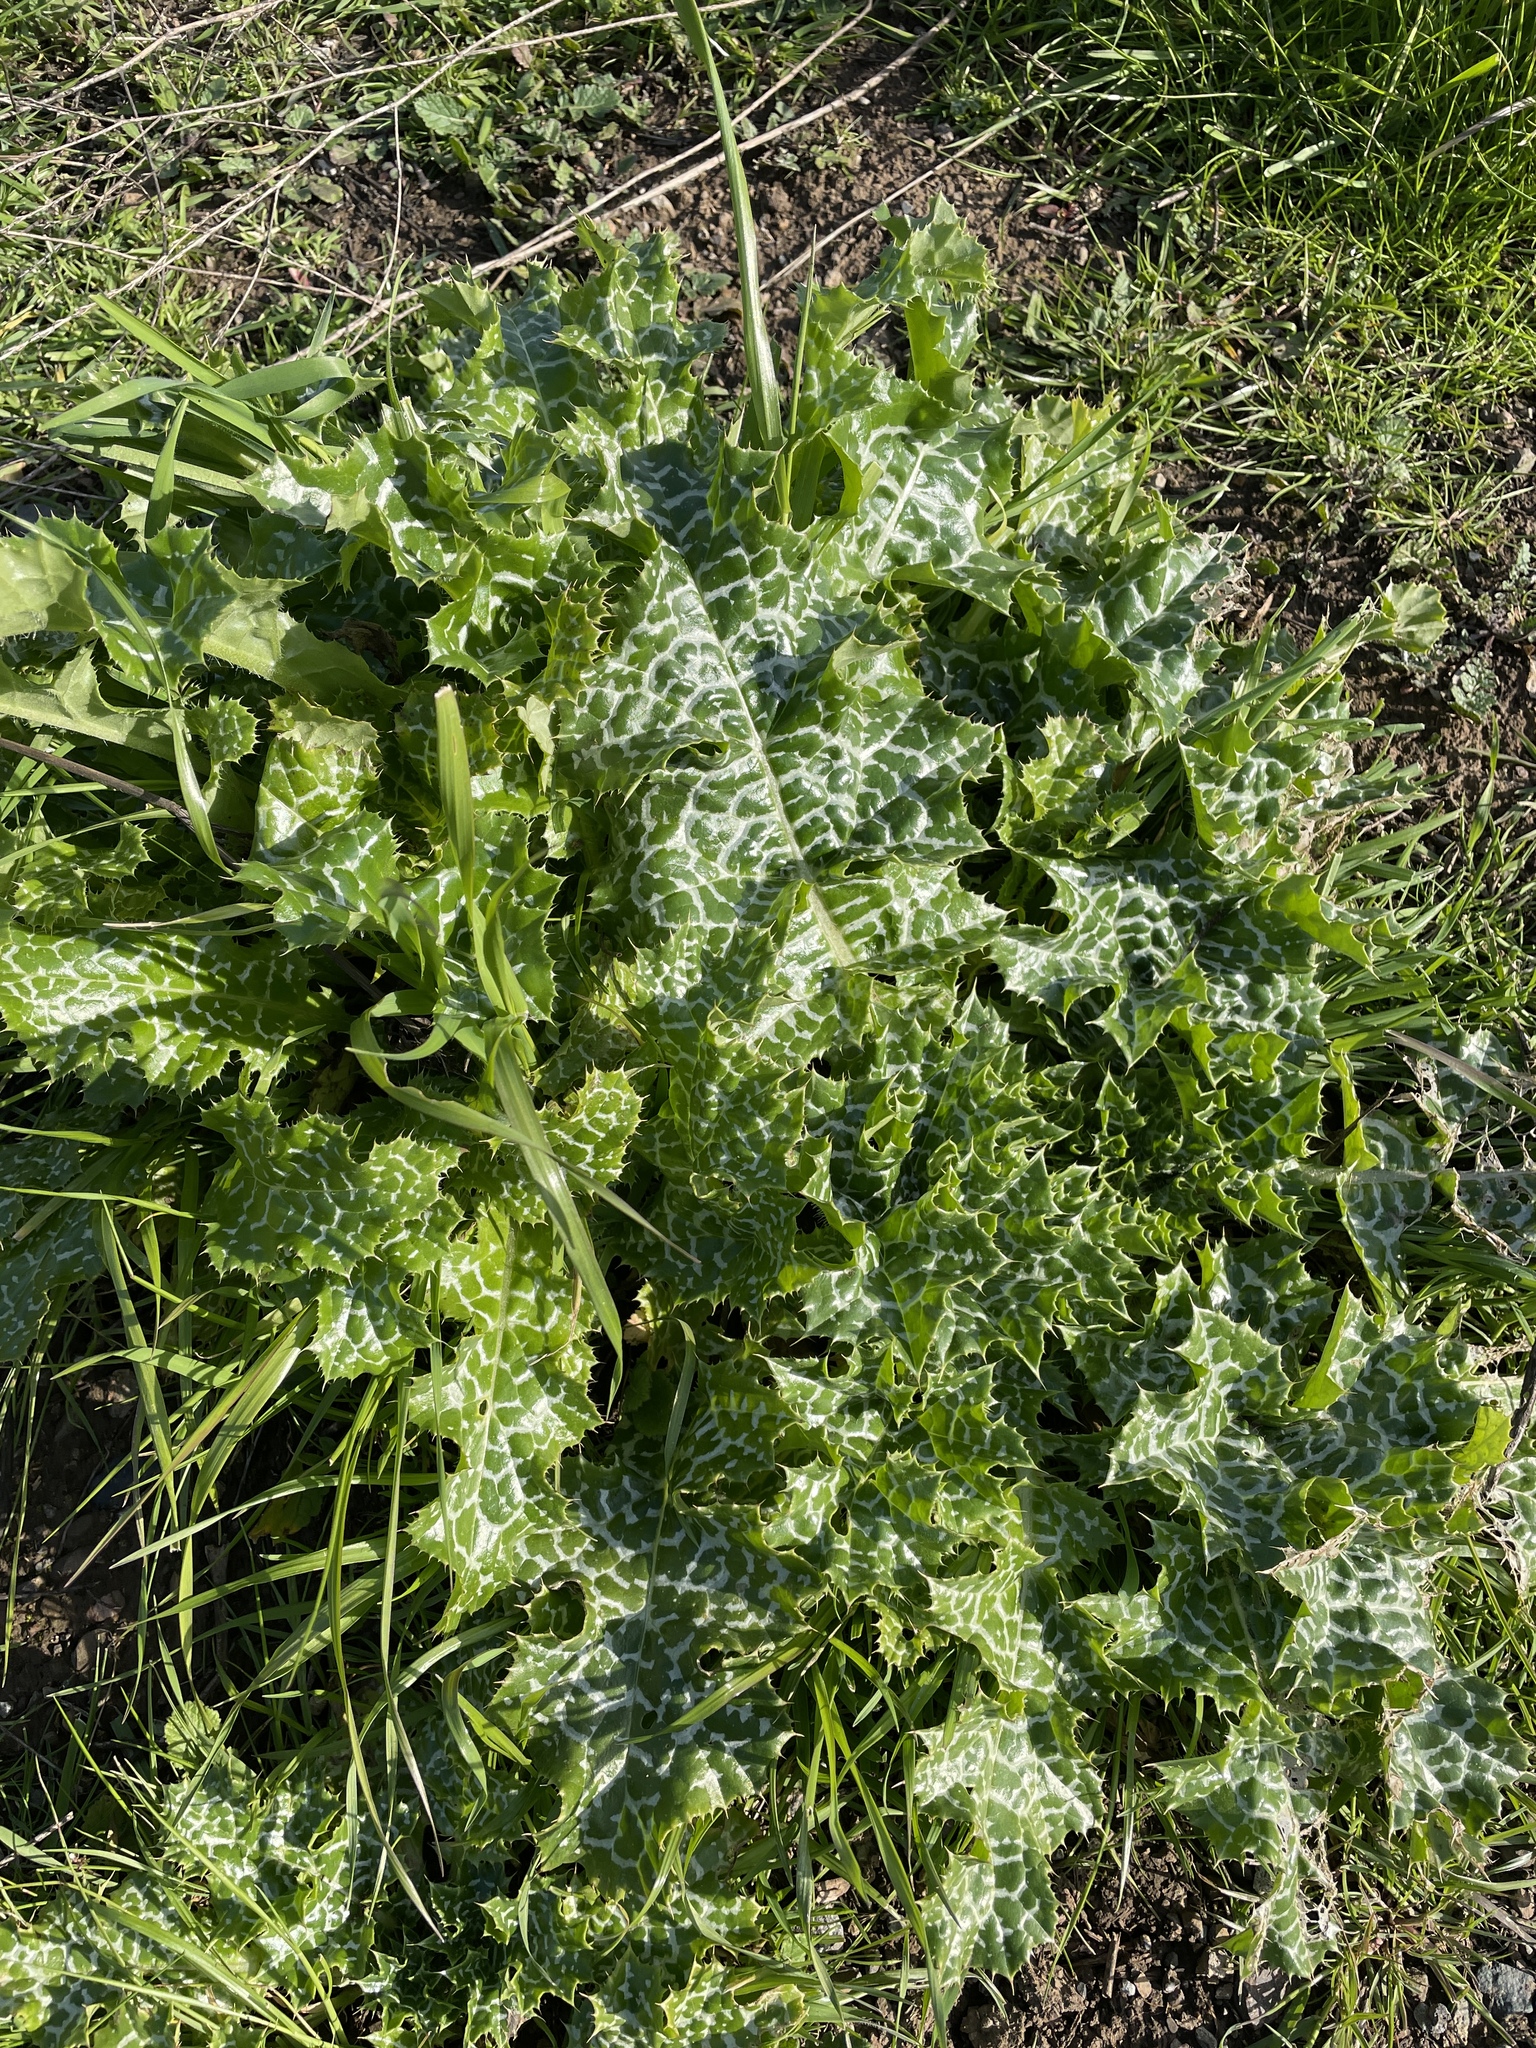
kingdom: Plantae
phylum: Tracheophyta
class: Magnoliopsida
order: Asterales
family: Asteraceae
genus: Silybum
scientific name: Silybum marianum
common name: Milk thistle
